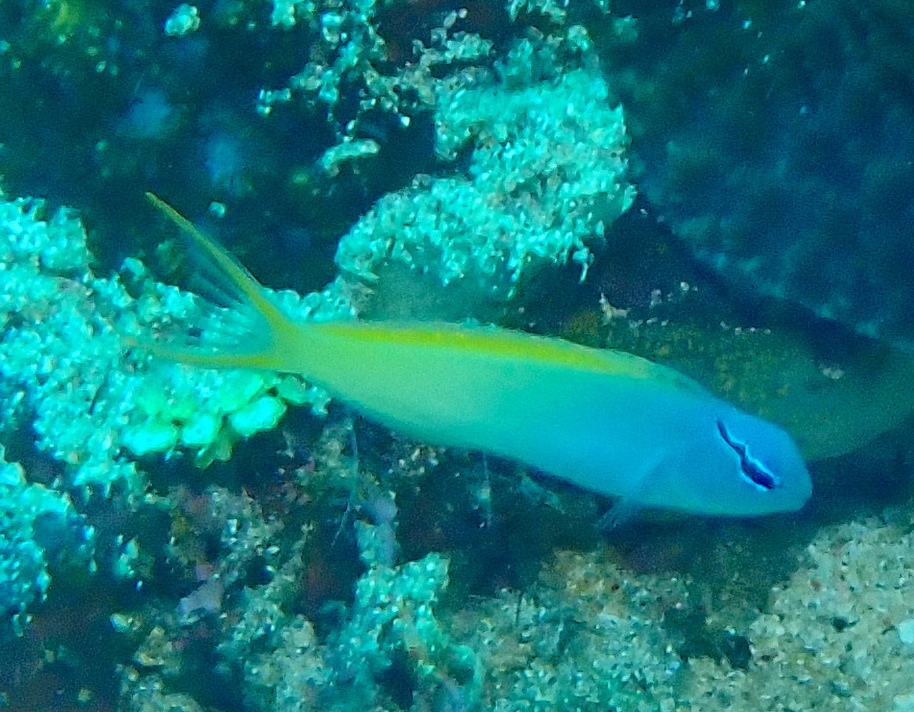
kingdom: Animalia
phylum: Chordata
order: Perciformes
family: Blenniidae
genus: Meiacanthus
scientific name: Meiacanthus atrodorsalis
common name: Eye-lash harptail-blenny
